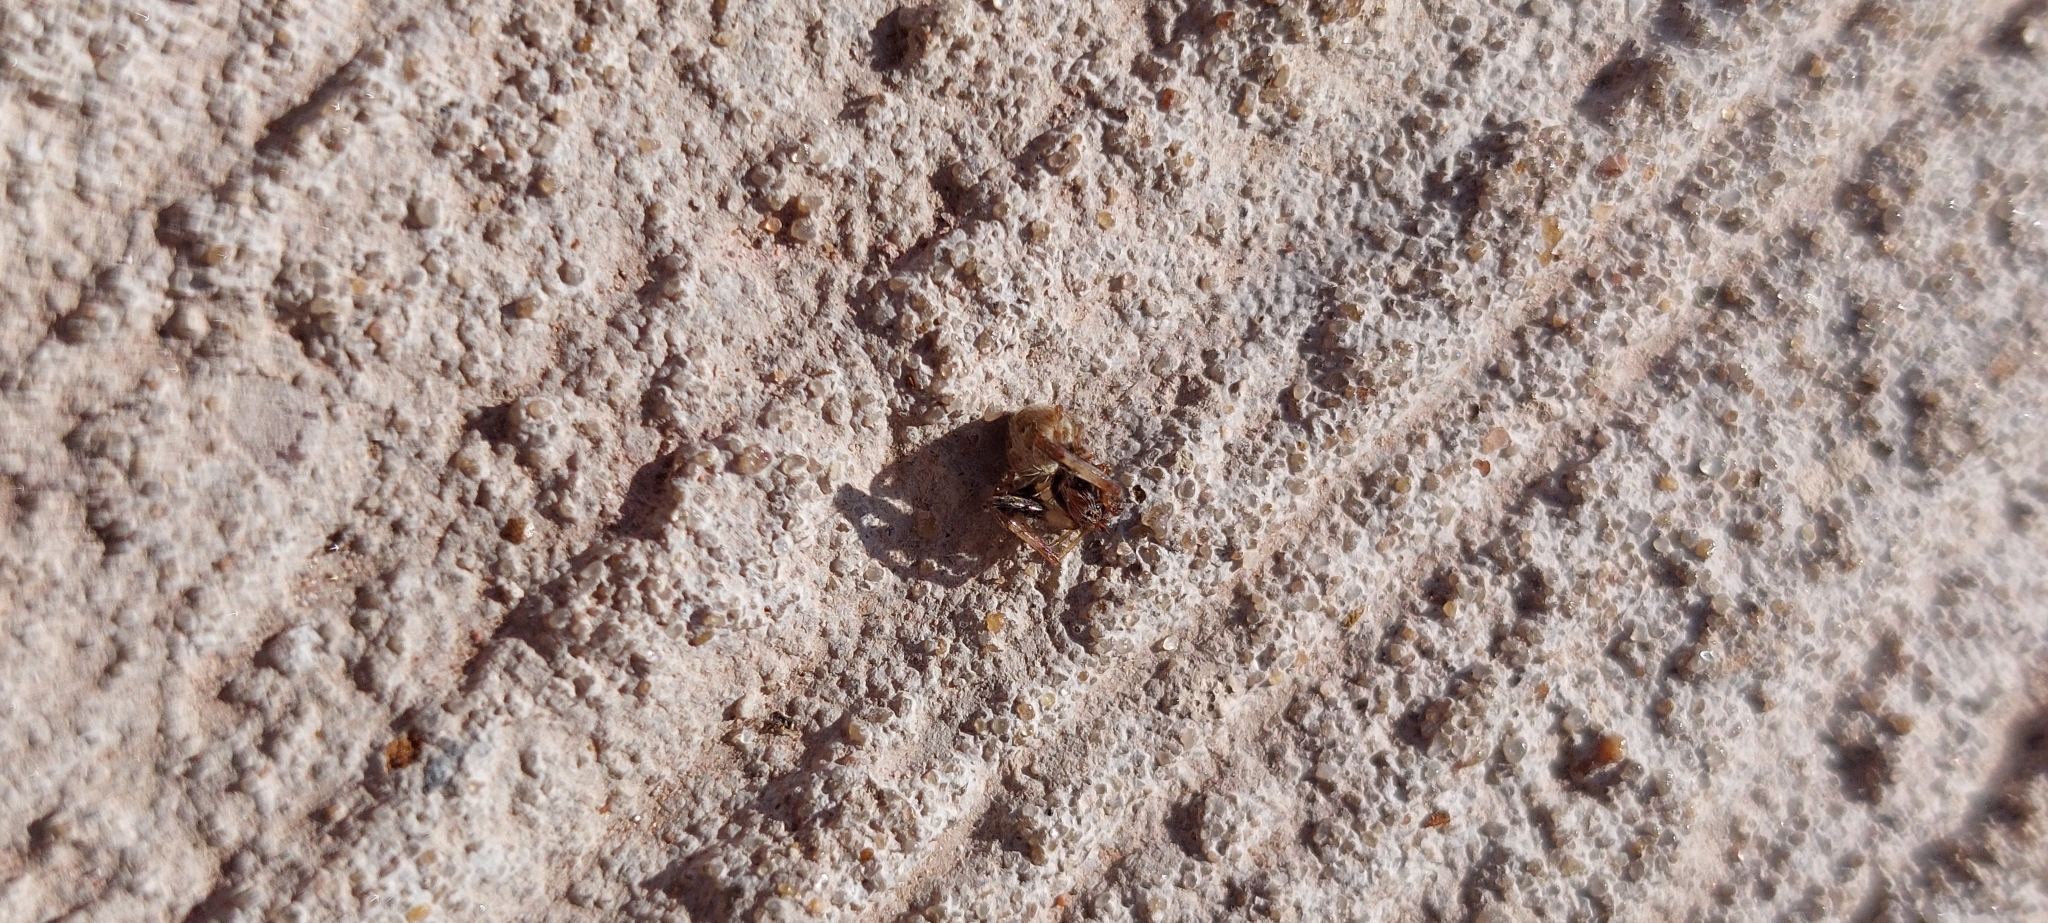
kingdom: Animalia
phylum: Arthropoda
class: Arachnida
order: Araneae
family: Araneidae
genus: Metepeira
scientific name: Metepeira
